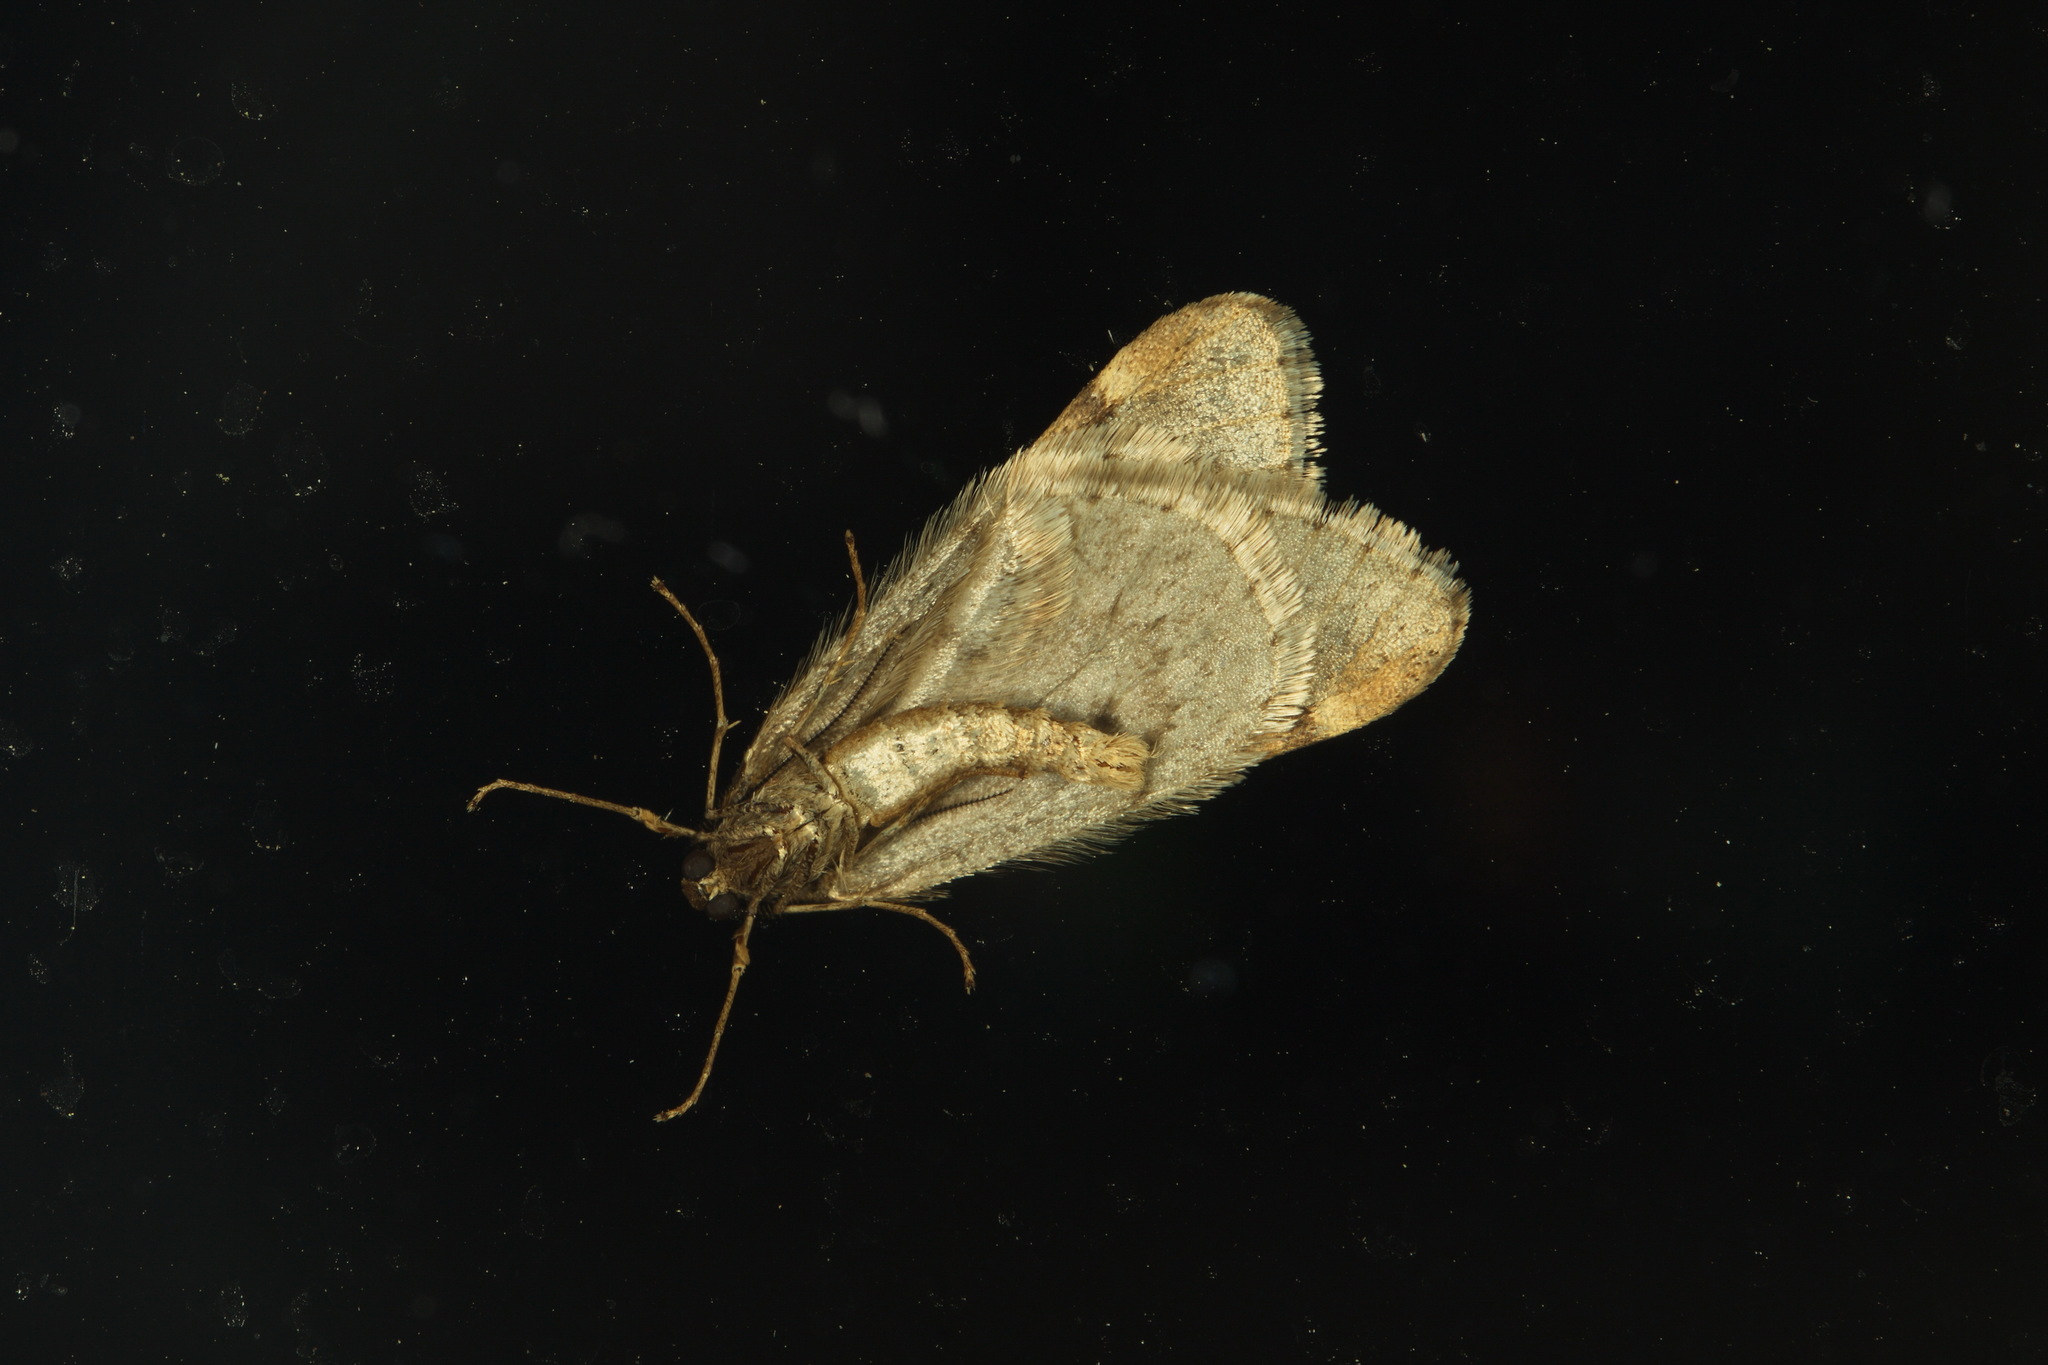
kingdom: Animalia
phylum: Arthropoda
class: Insecta
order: Lepidoptera
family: Geometridae
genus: Alsophila
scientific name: Alsophila aescularia
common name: March moth
